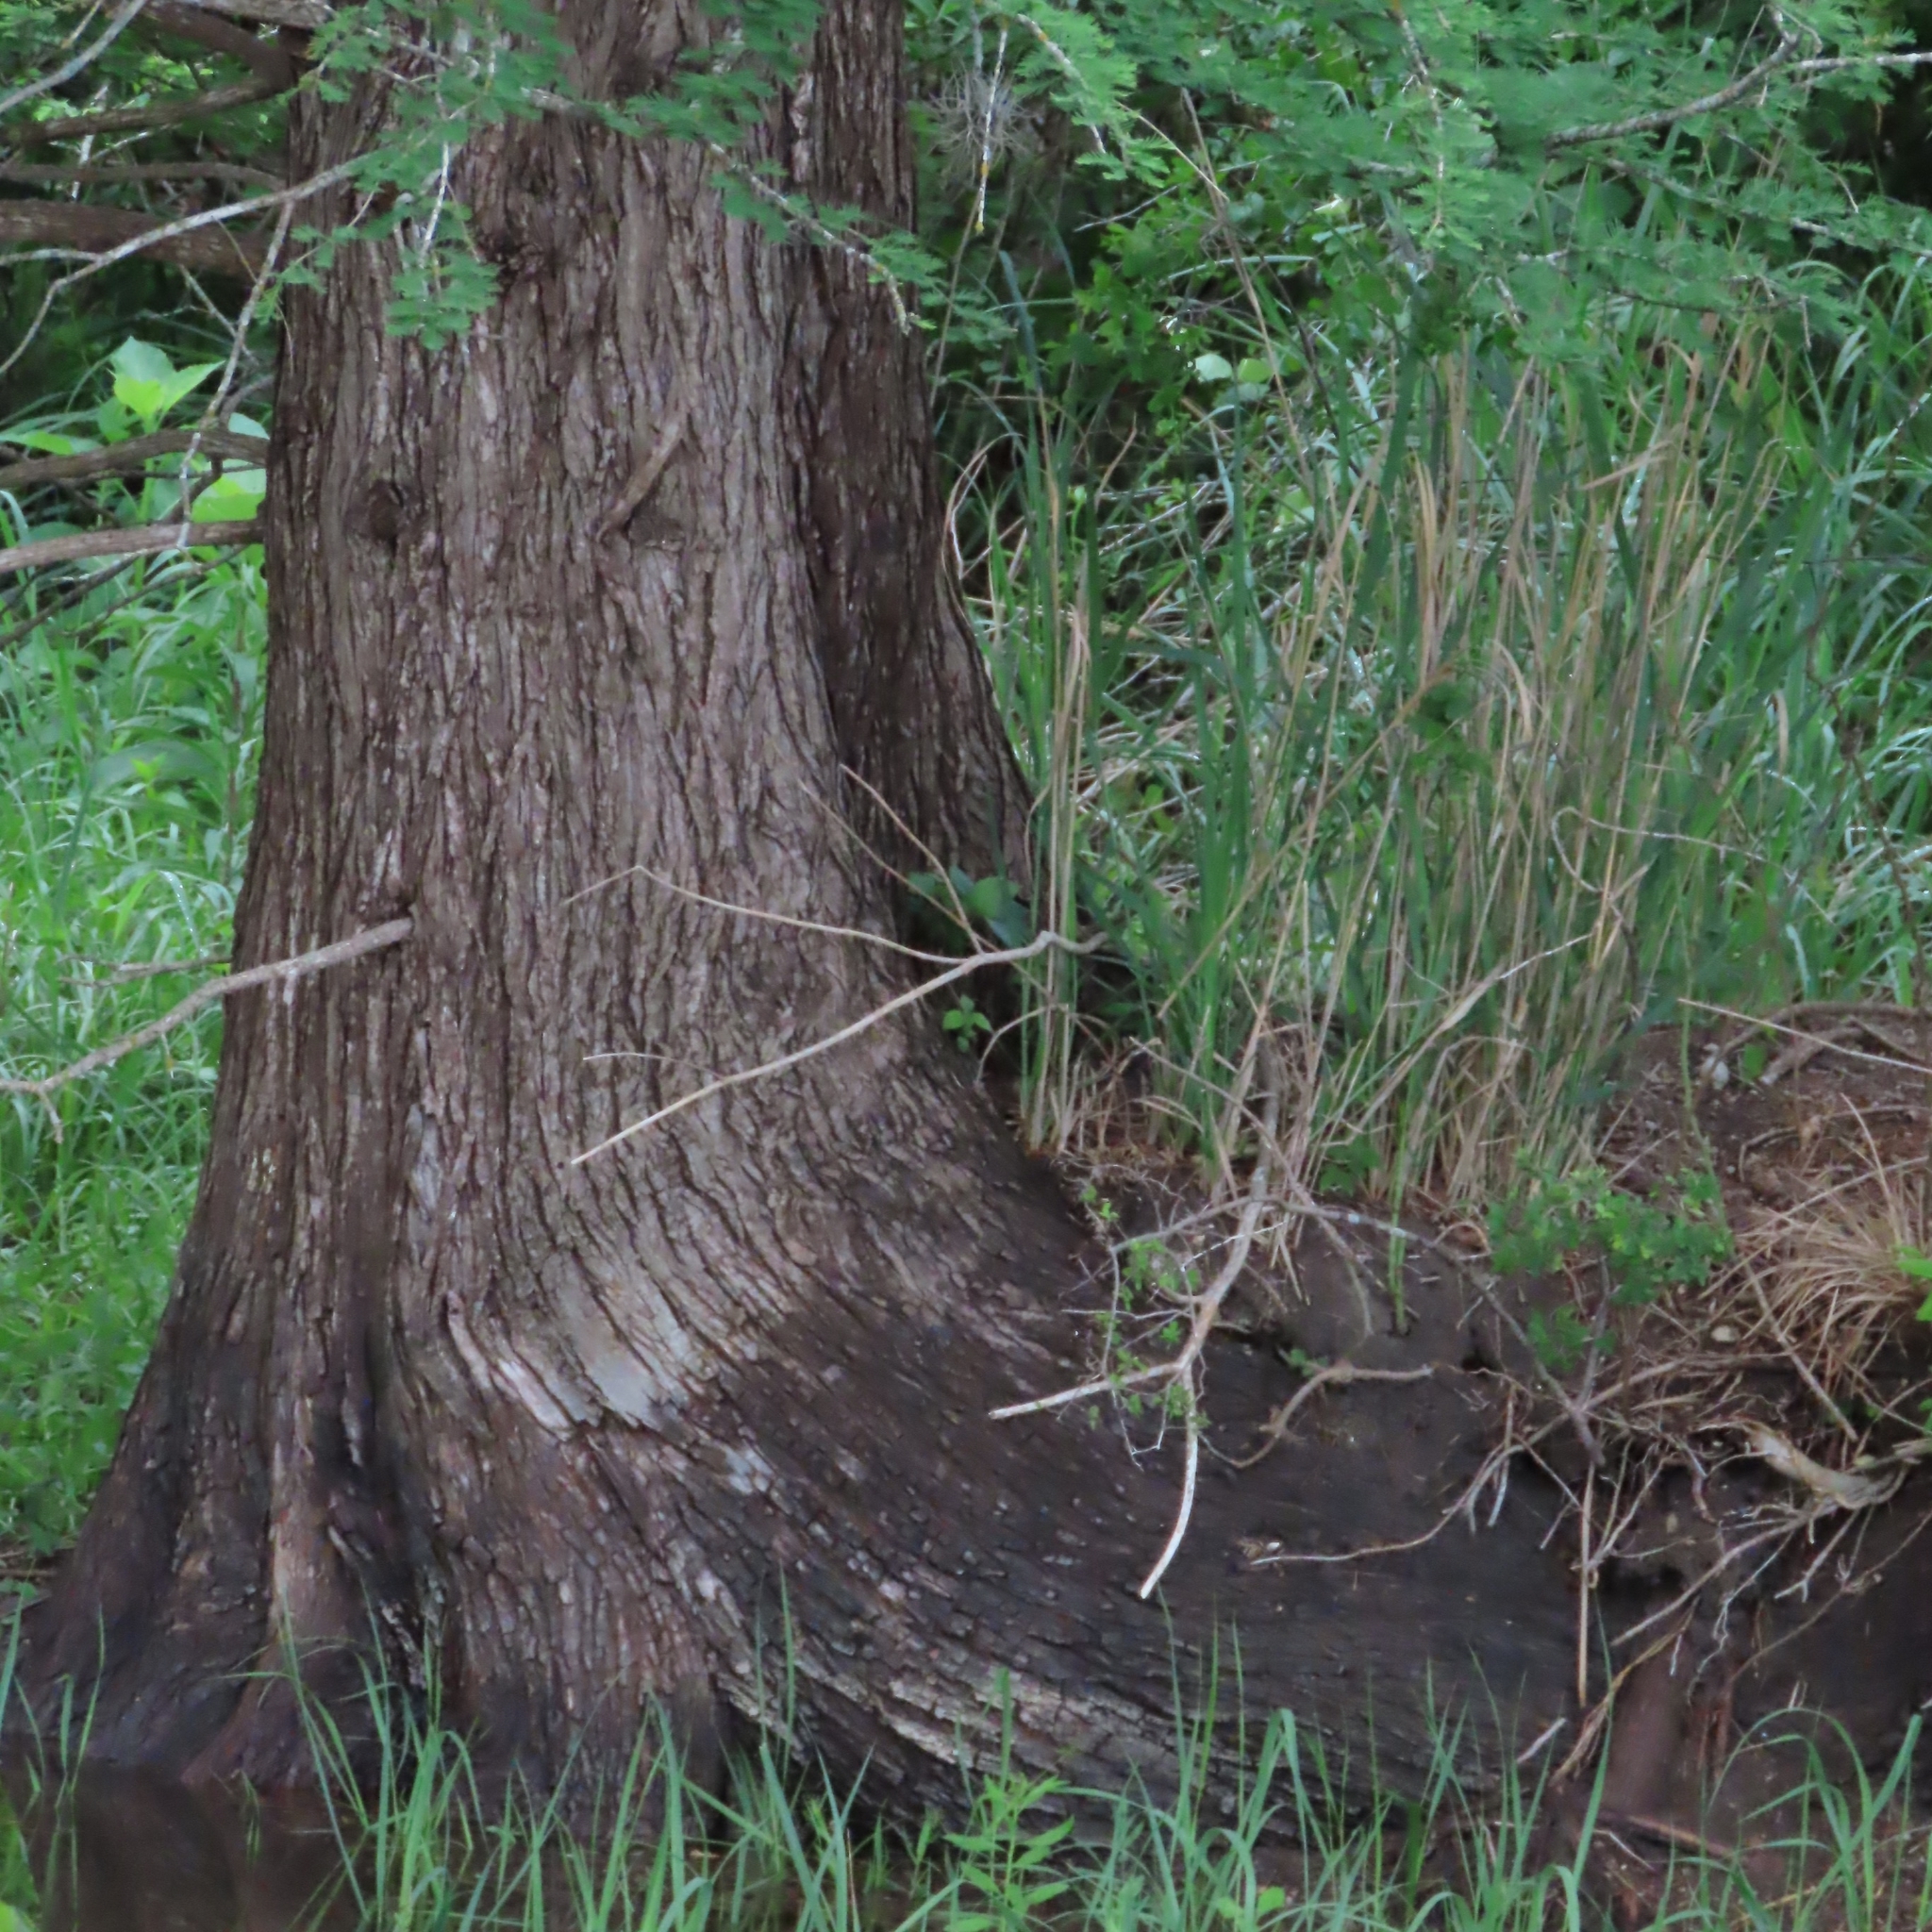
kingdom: Plantae
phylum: Tracheophyta
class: Pinopsida
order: Pinales
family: Cupressaceae
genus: Taxodium
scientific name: Taxodium distichum
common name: Bald cypress
